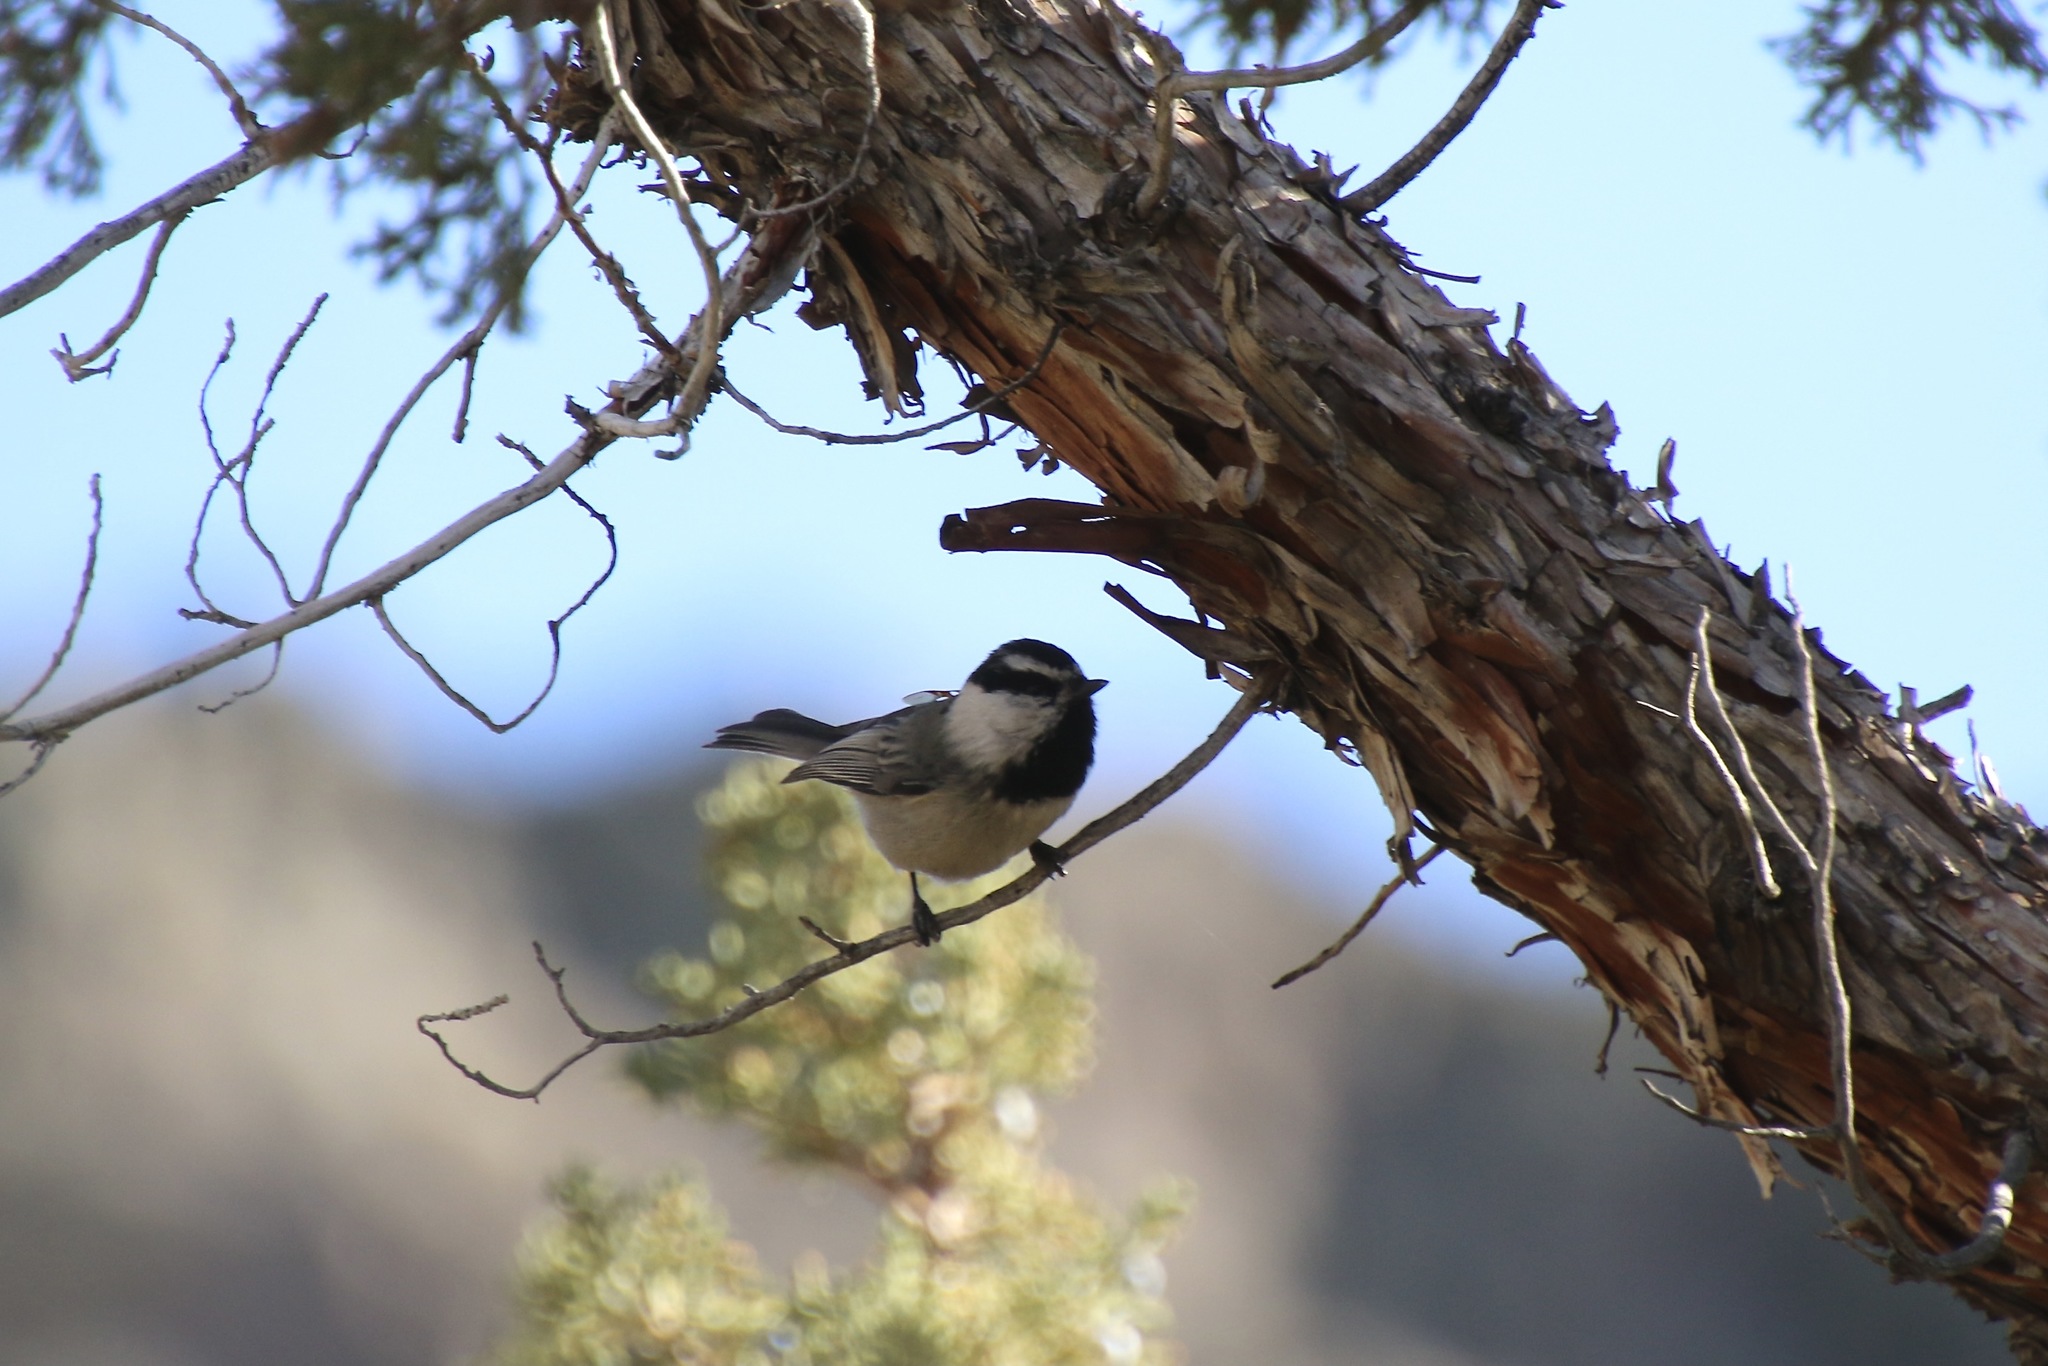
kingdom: Animalia
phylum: Chordata
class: Aves
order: Passeriformes
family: Paridae
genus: Poecile
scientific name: Poecile gambeli
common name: Mountain chickadee
